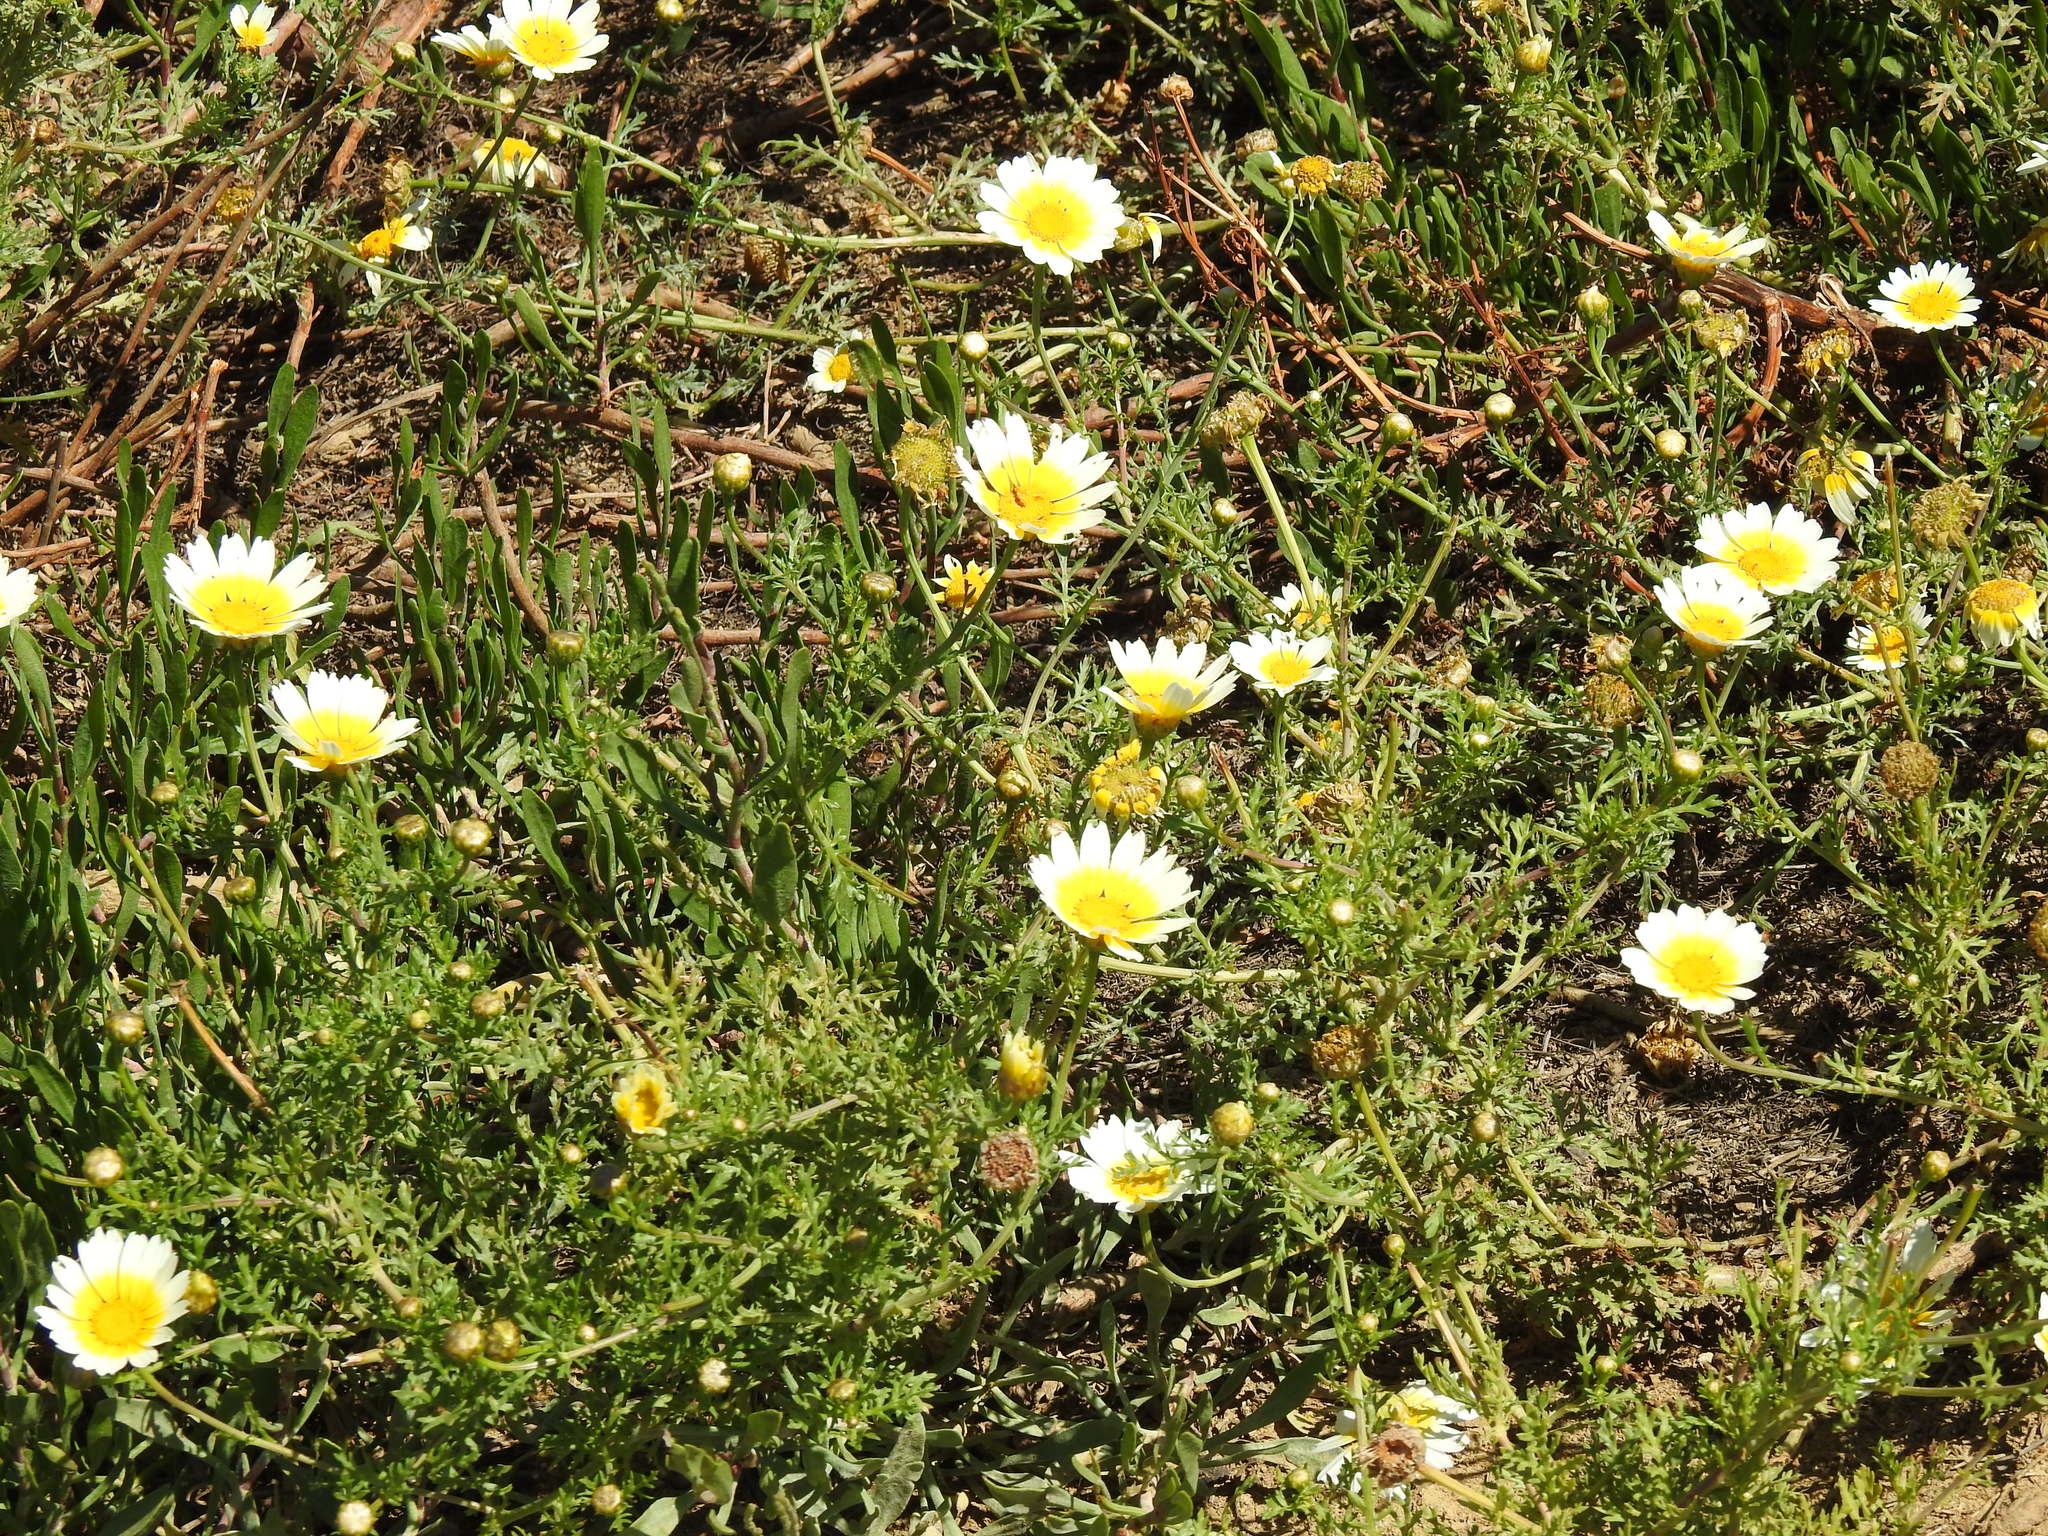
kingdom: Plantae
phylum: Tracheophyta
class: Magnoliopsida
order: Asterales
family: Asteraceae
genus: Glebionis
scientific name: Glebionis coronaria
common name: Crowndaisy
